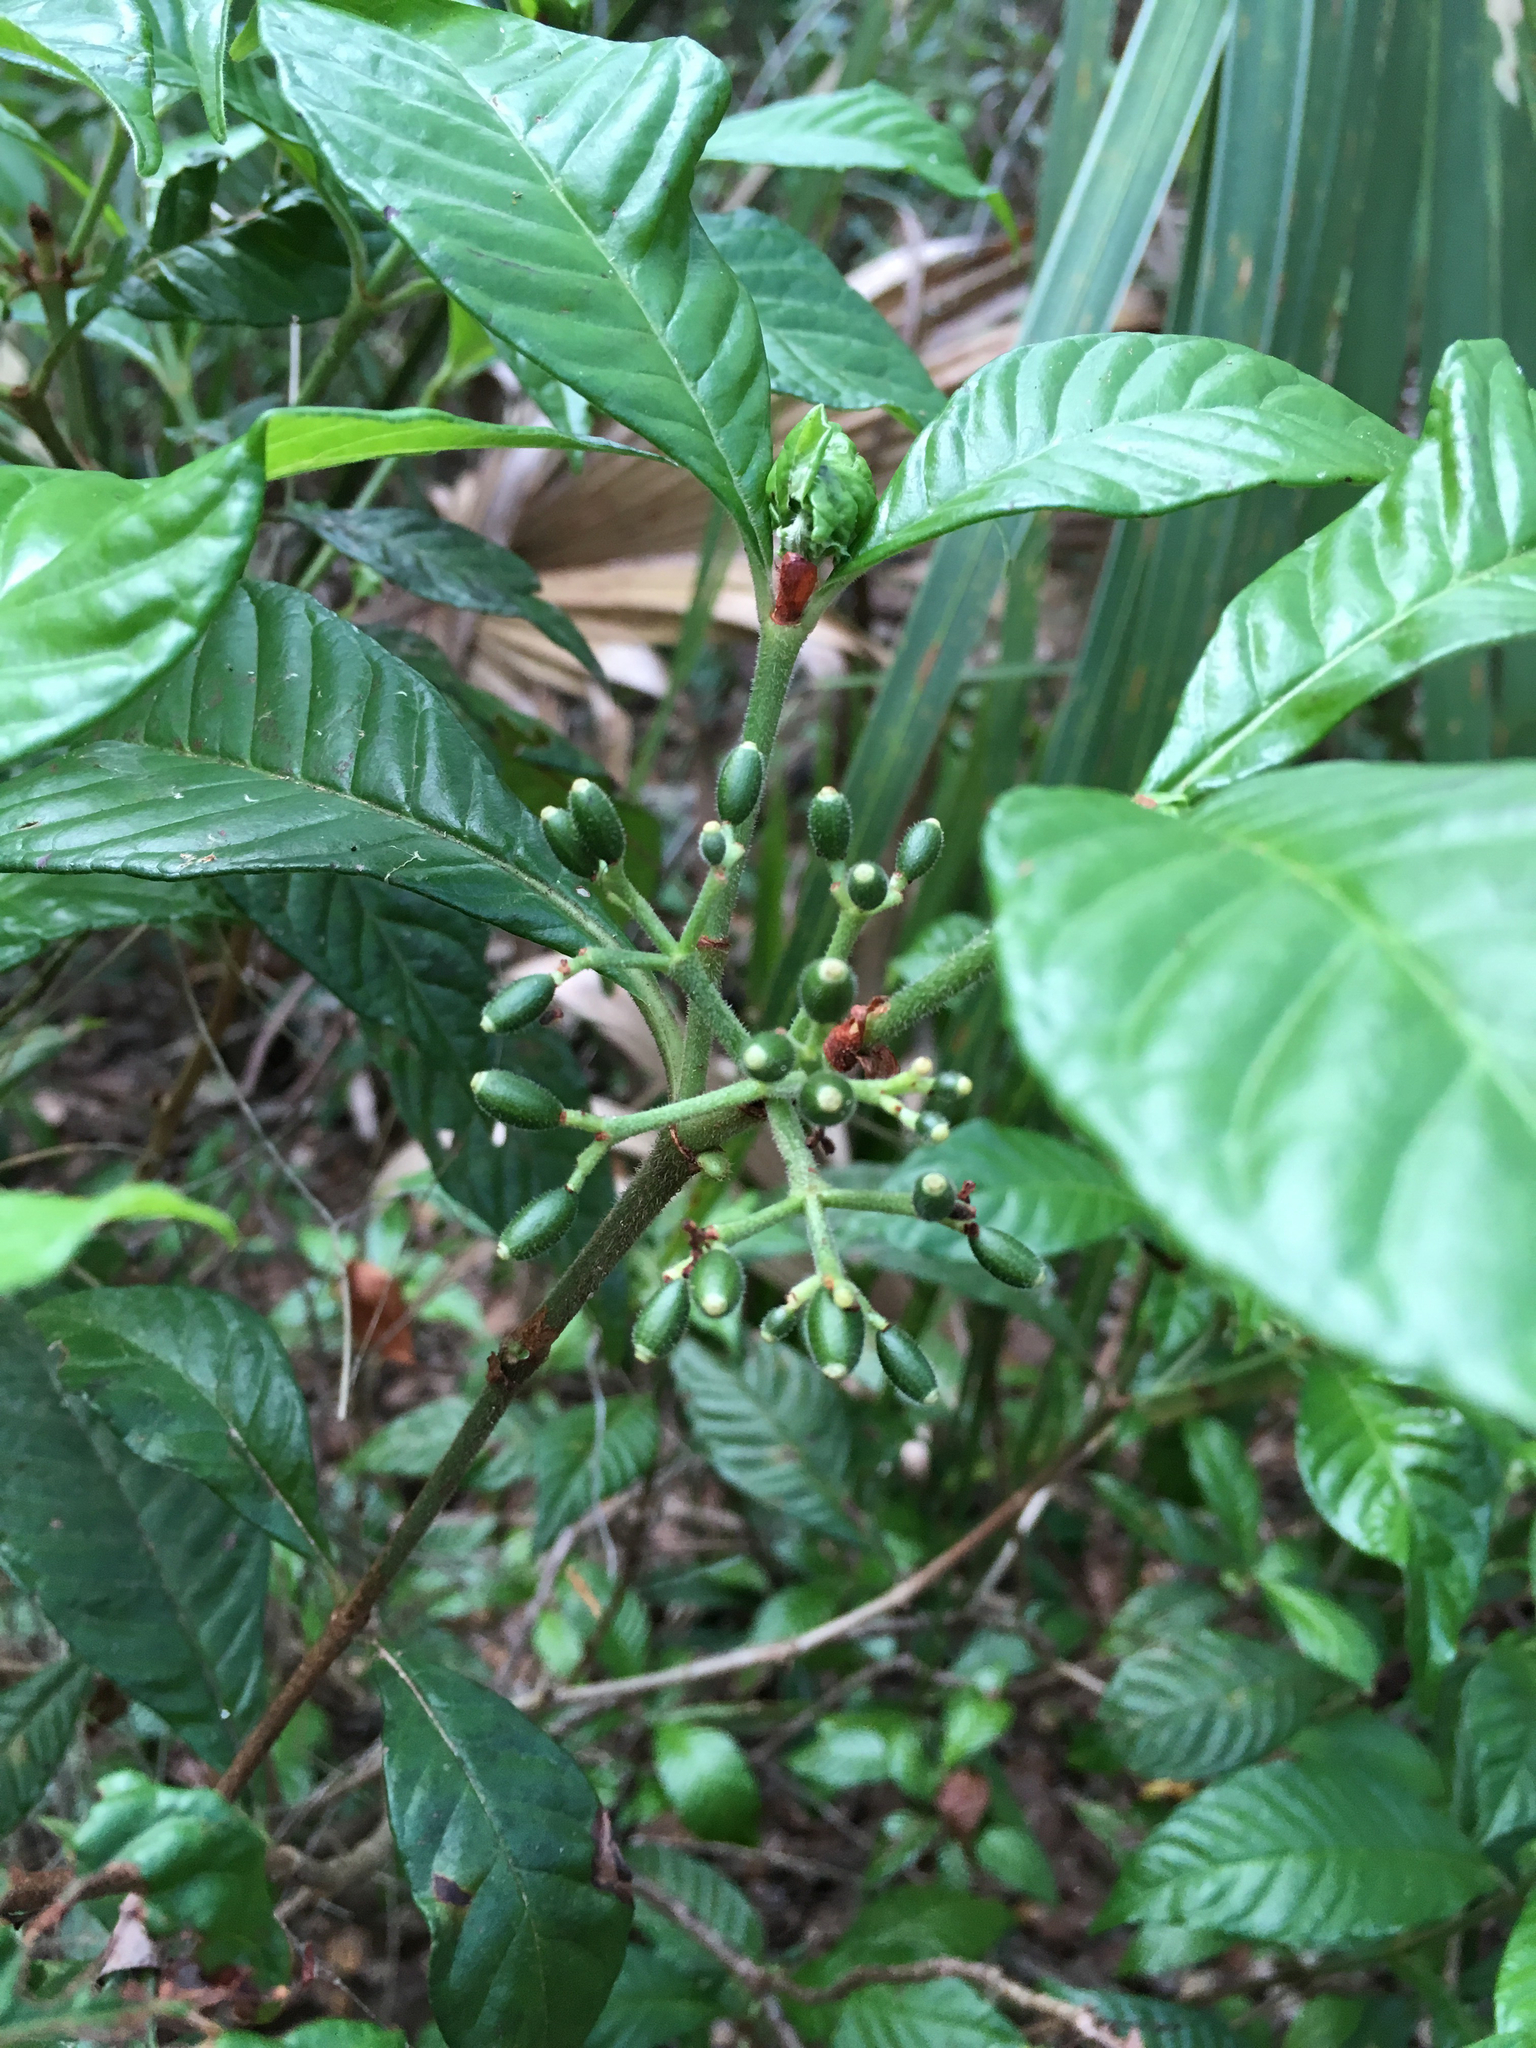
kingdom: Plantae
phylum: Tracheophyta
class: Magnoliopsida
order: Gentianales
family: Rubiaceae
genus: Psychotria
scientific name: Psychotria nervosa
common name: Bastard cankerberry
